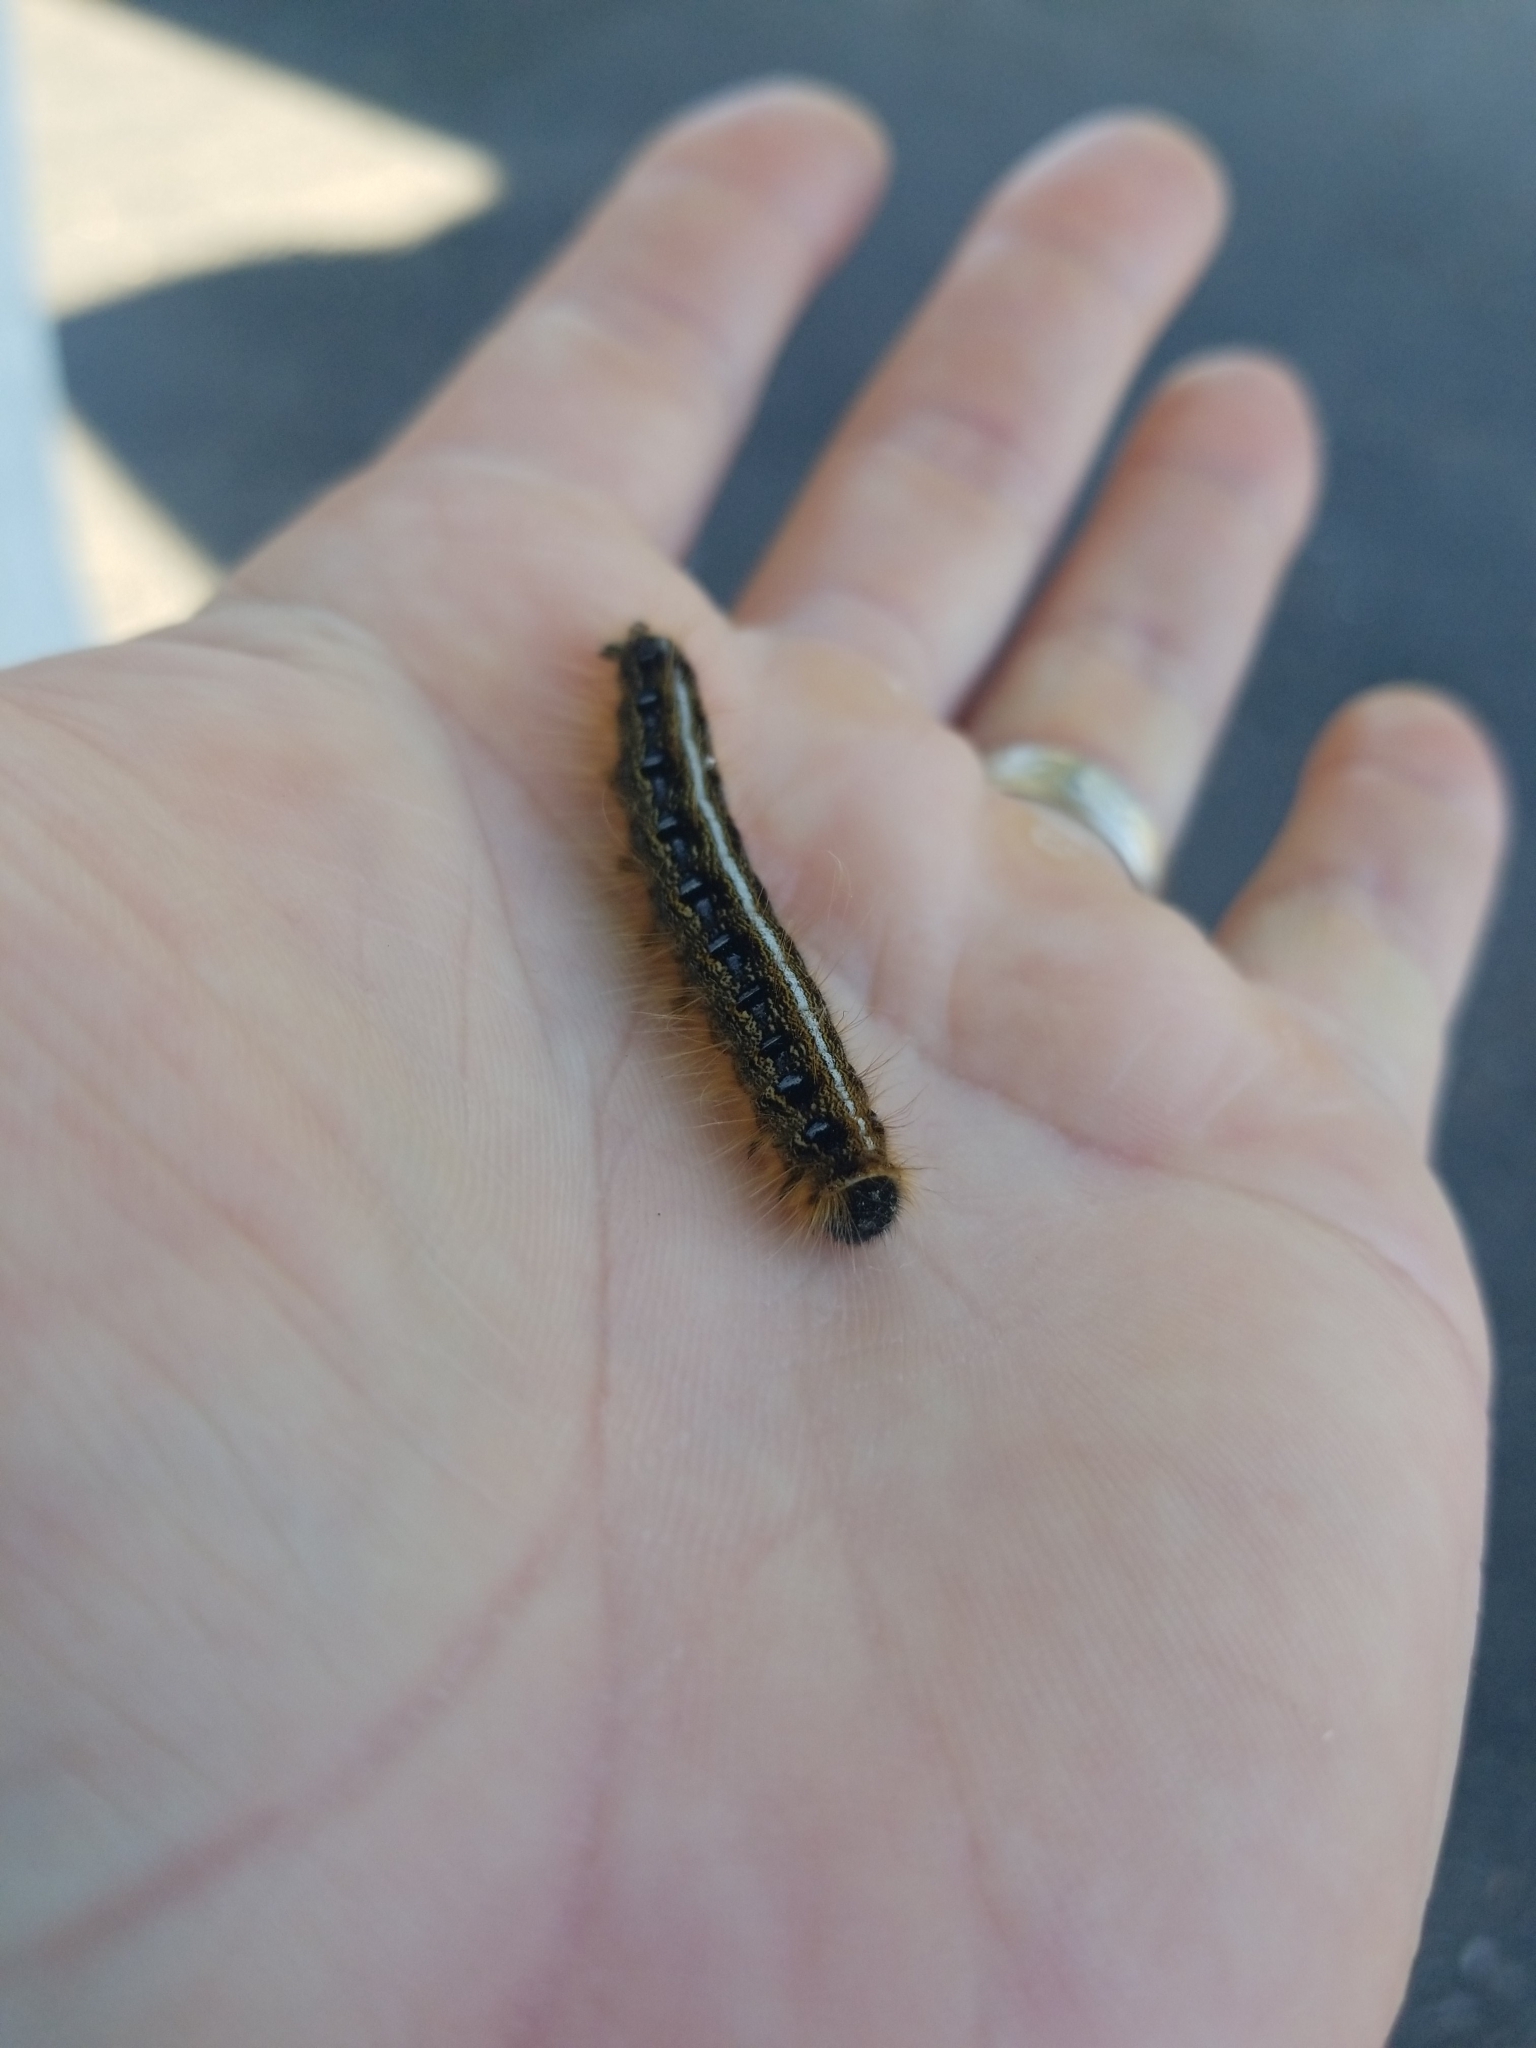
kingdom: Animalia
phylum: Arthropoda
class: Insecta
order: Lepidoptera
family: Lasiocampidae
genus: Malacosoma
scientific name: Malacosoma americana
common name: Eastern tent caterpillar moth
